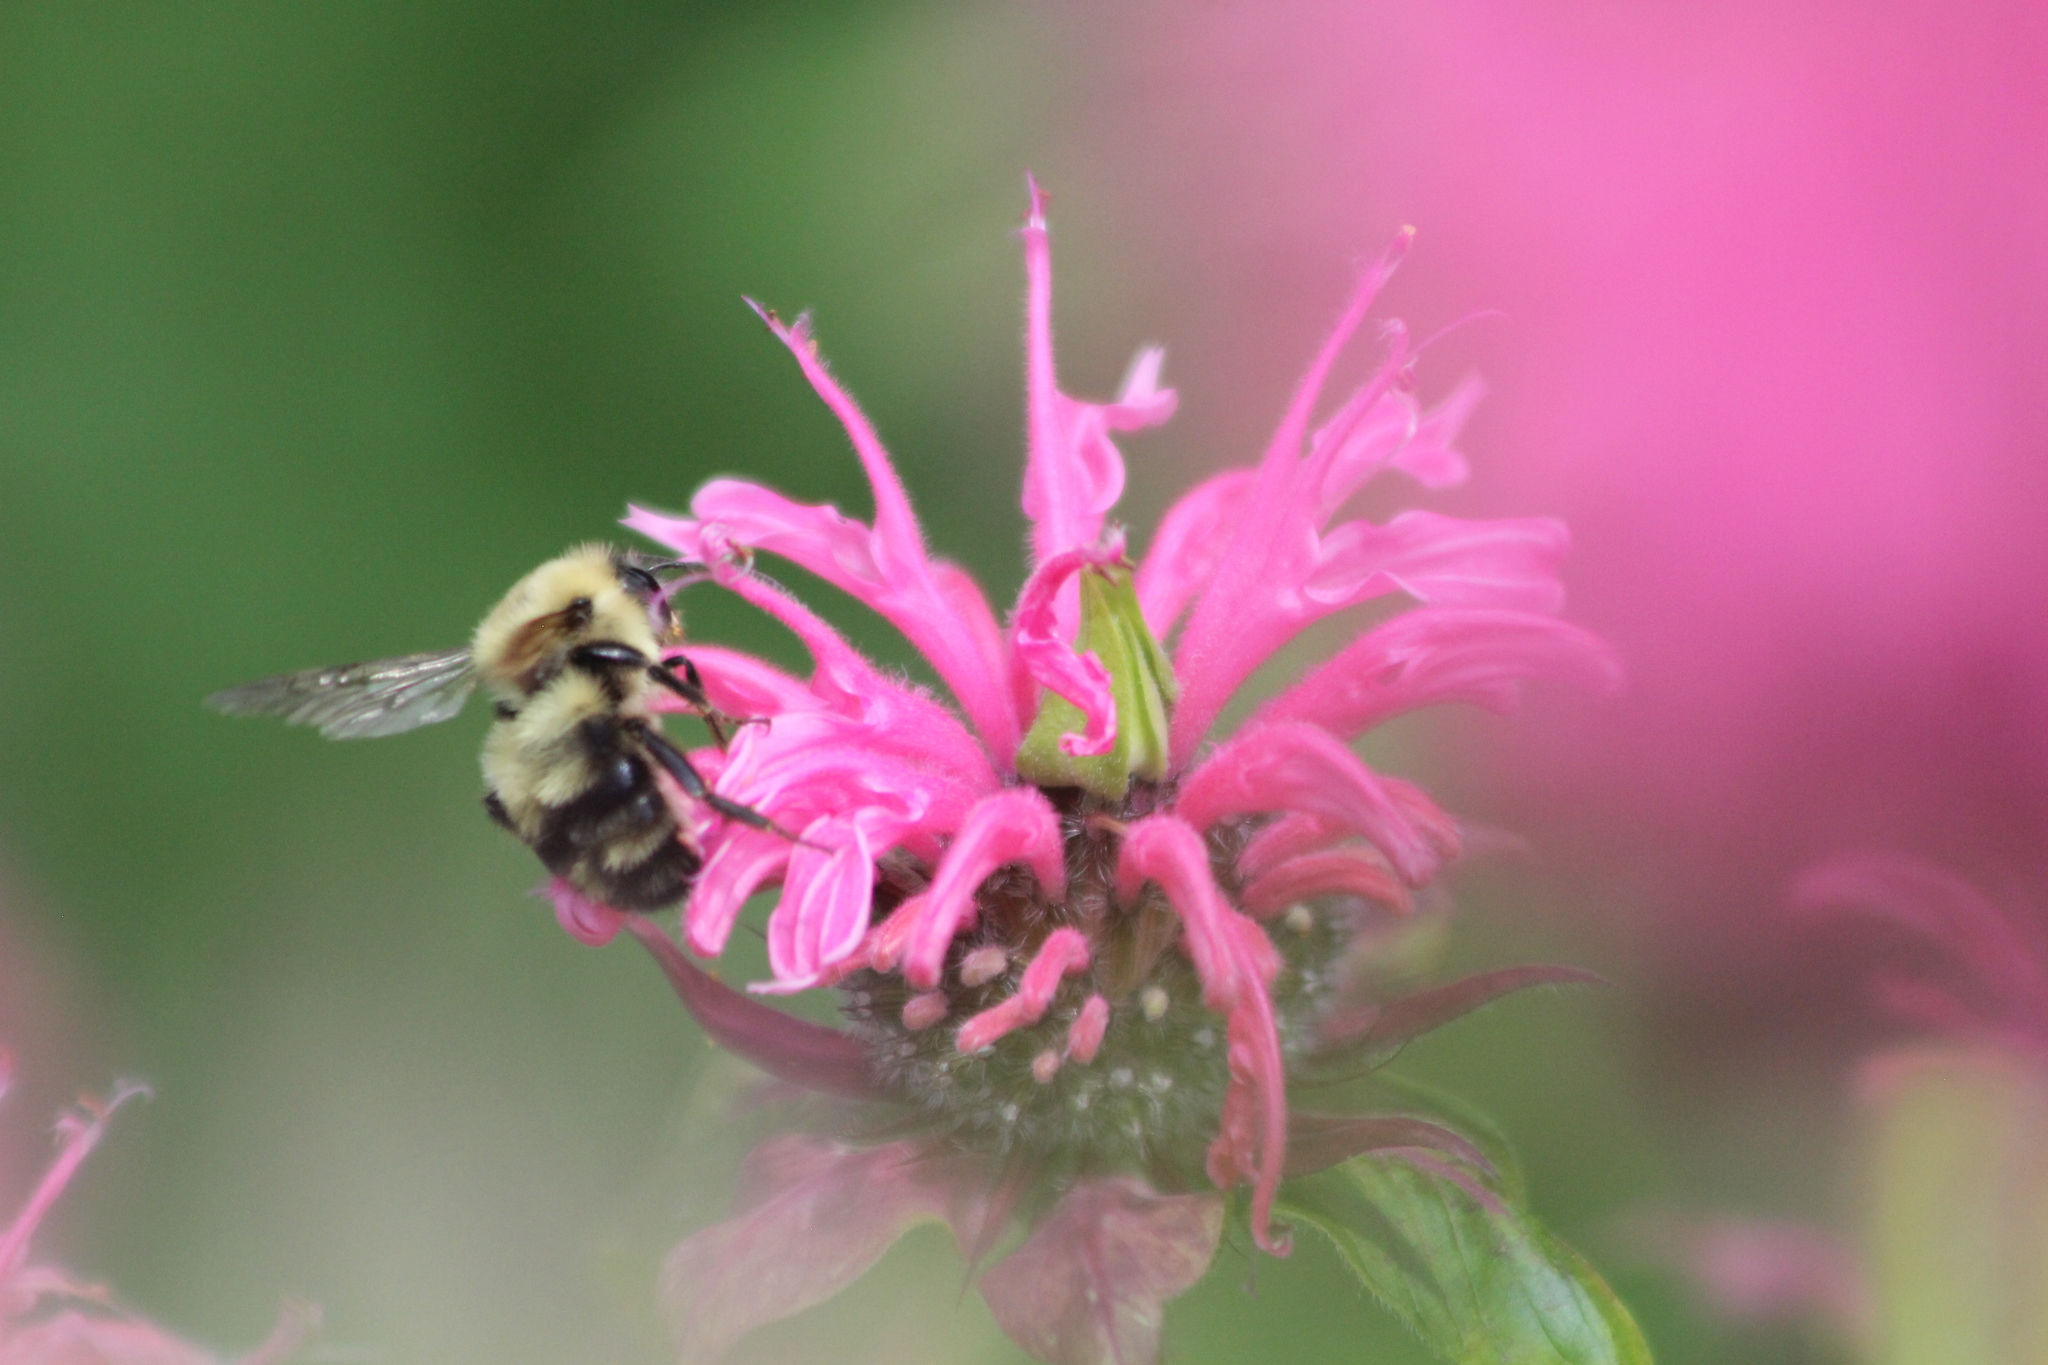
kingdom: Animalia
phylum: Arthropoda
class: Insecta
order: Hymenoptera
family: Apidae
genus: Bombus
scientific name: Bombus bimaculatus
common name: Two-spotted bumble bee
